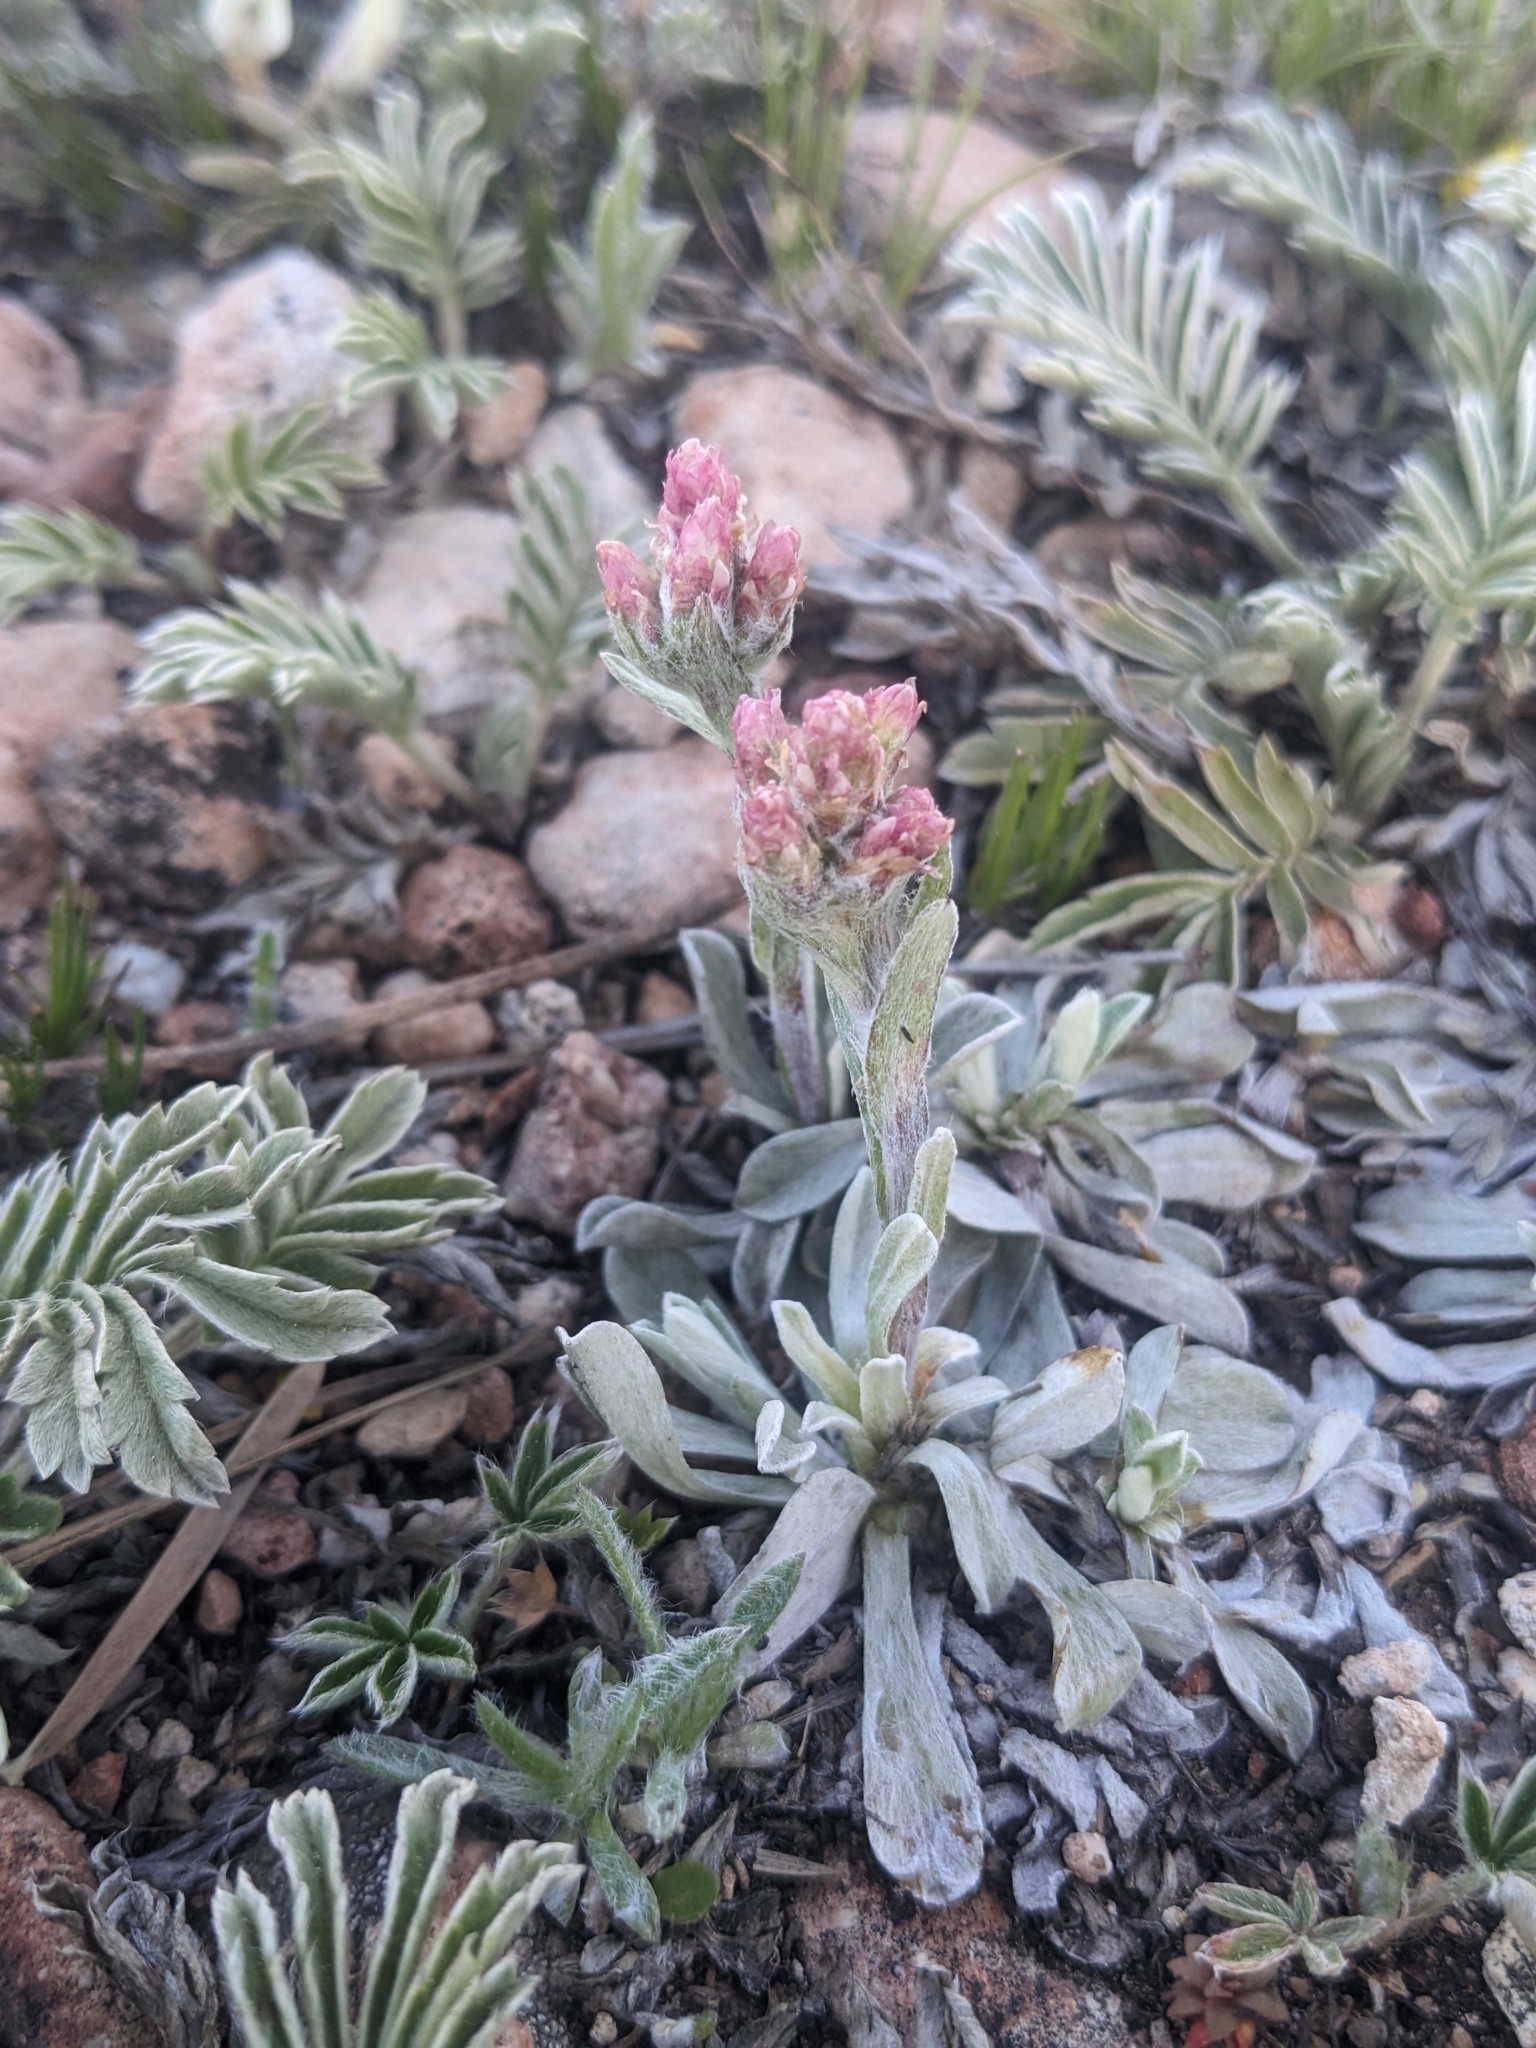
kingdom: Plantae
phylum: Tracheophyta
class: Magnoliopsida
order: Asterales
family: Asteraceae
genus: Antennaria
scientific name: Antennaria rosea
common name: Rosy pussytoes
